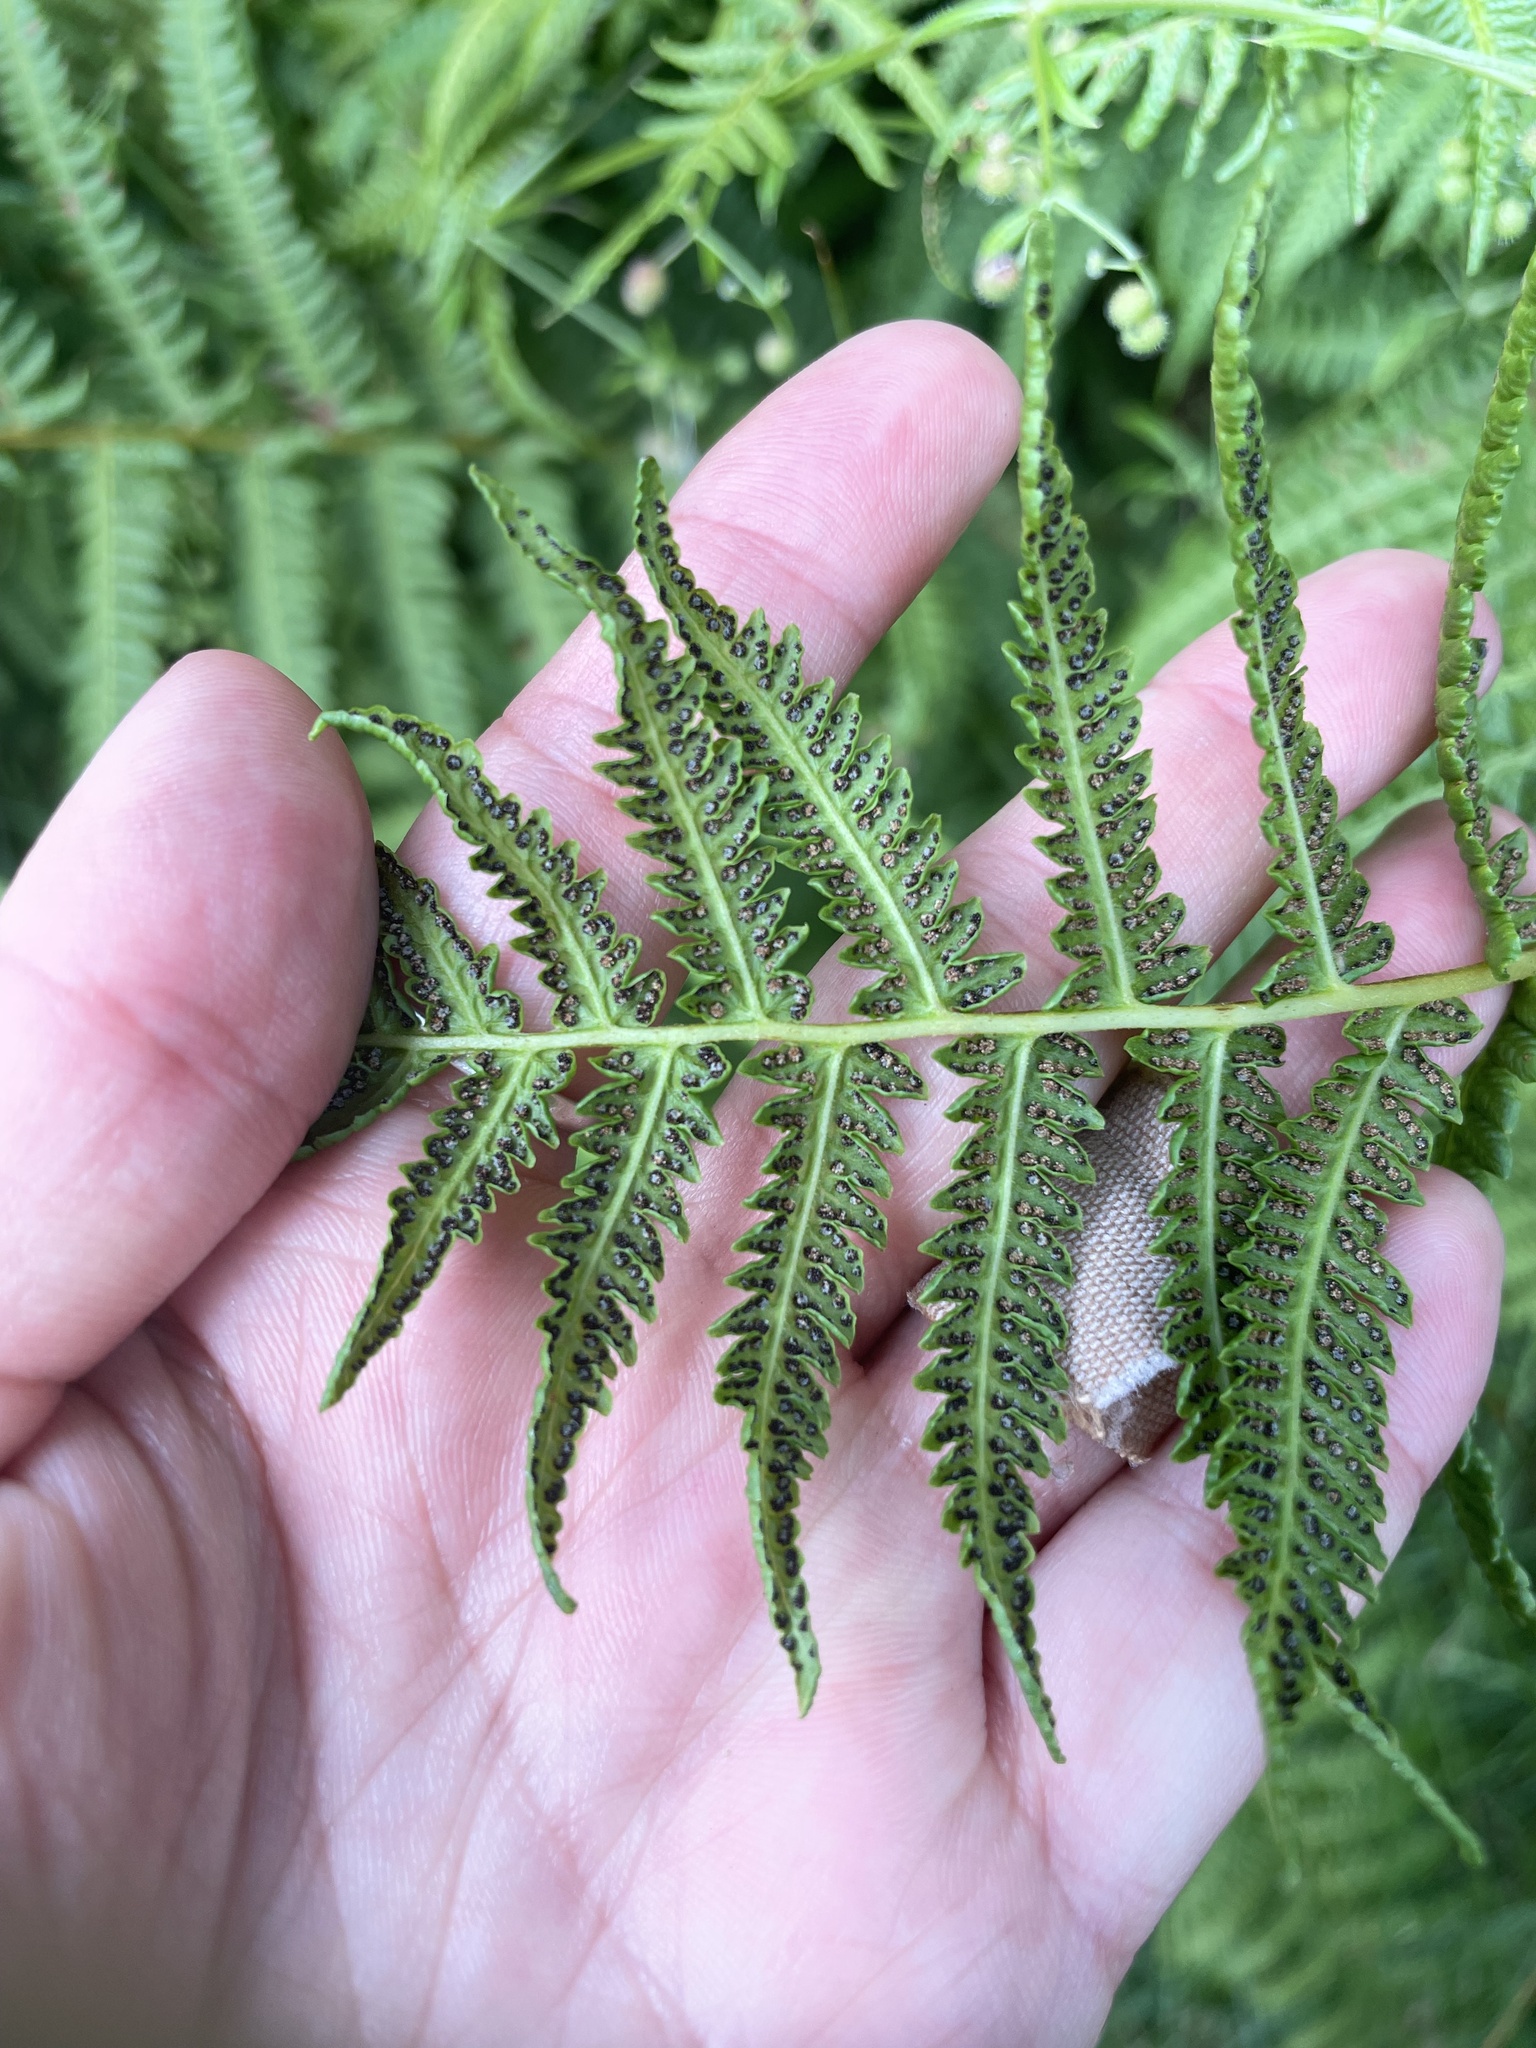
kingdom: Plantae
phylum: Tracheophyta
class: Polypodiopsida
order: Polypodiales
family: Thelypteridaceae
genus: Oreopteris
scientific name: Oreopteris limbosperma
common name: Lemon-scented fern
